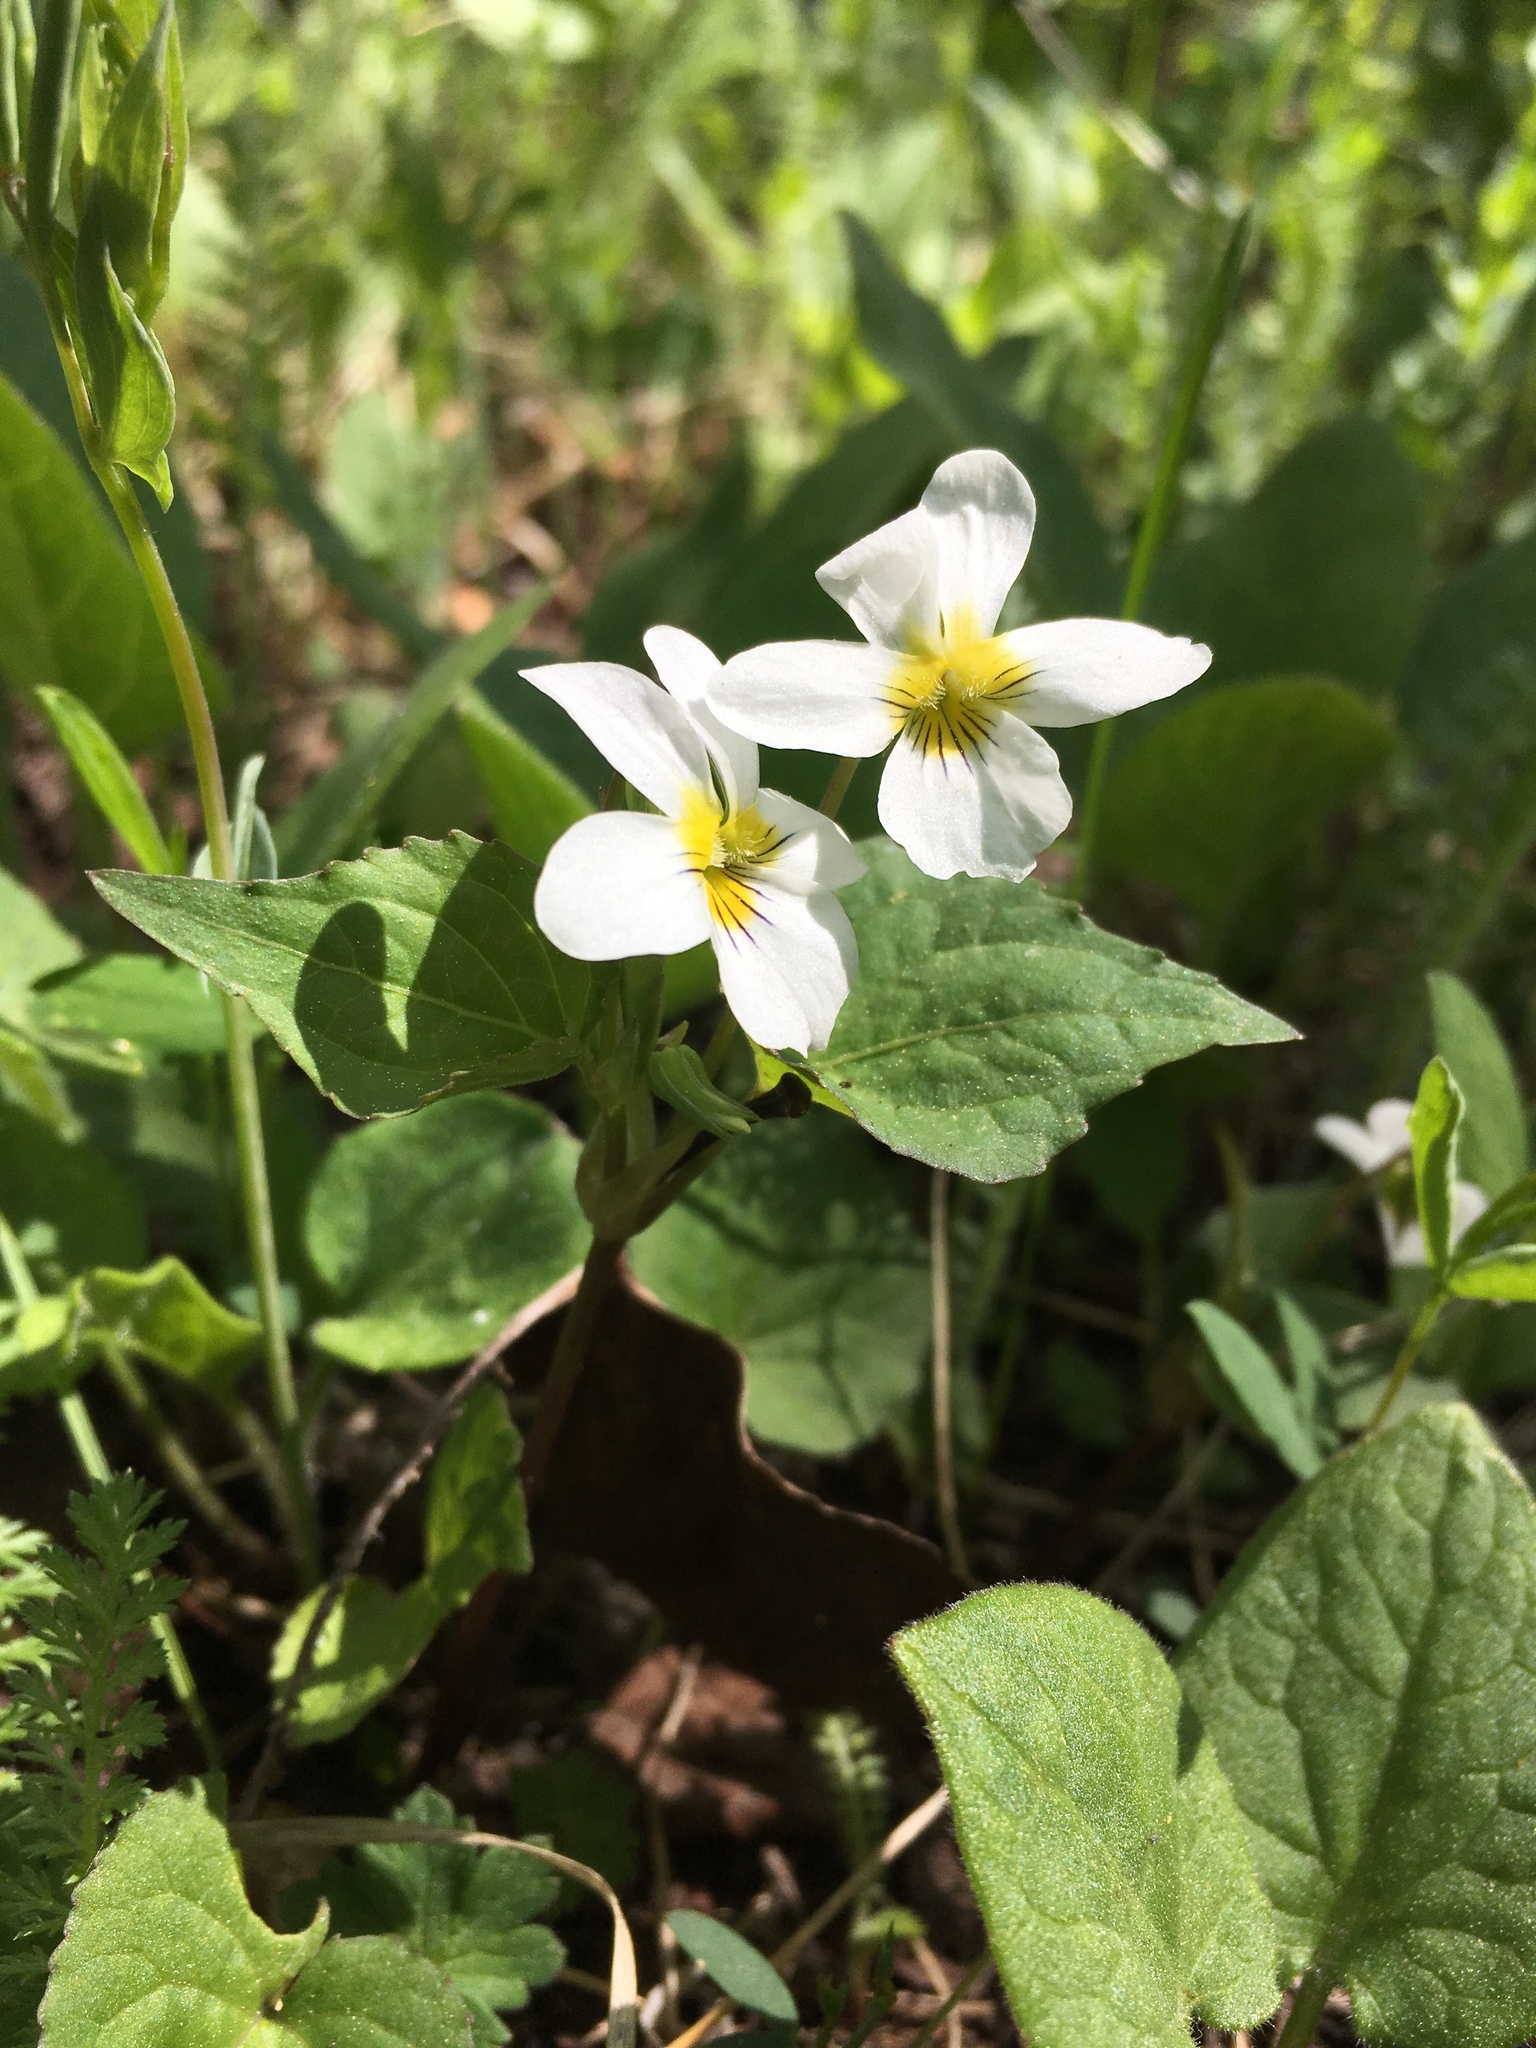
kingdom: Plantae
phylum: Tracheophyta
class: Magnoliopsida
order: Malpighiales
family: Violaceae
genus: Viola
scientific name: Viola canadensis
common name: Canada violet
